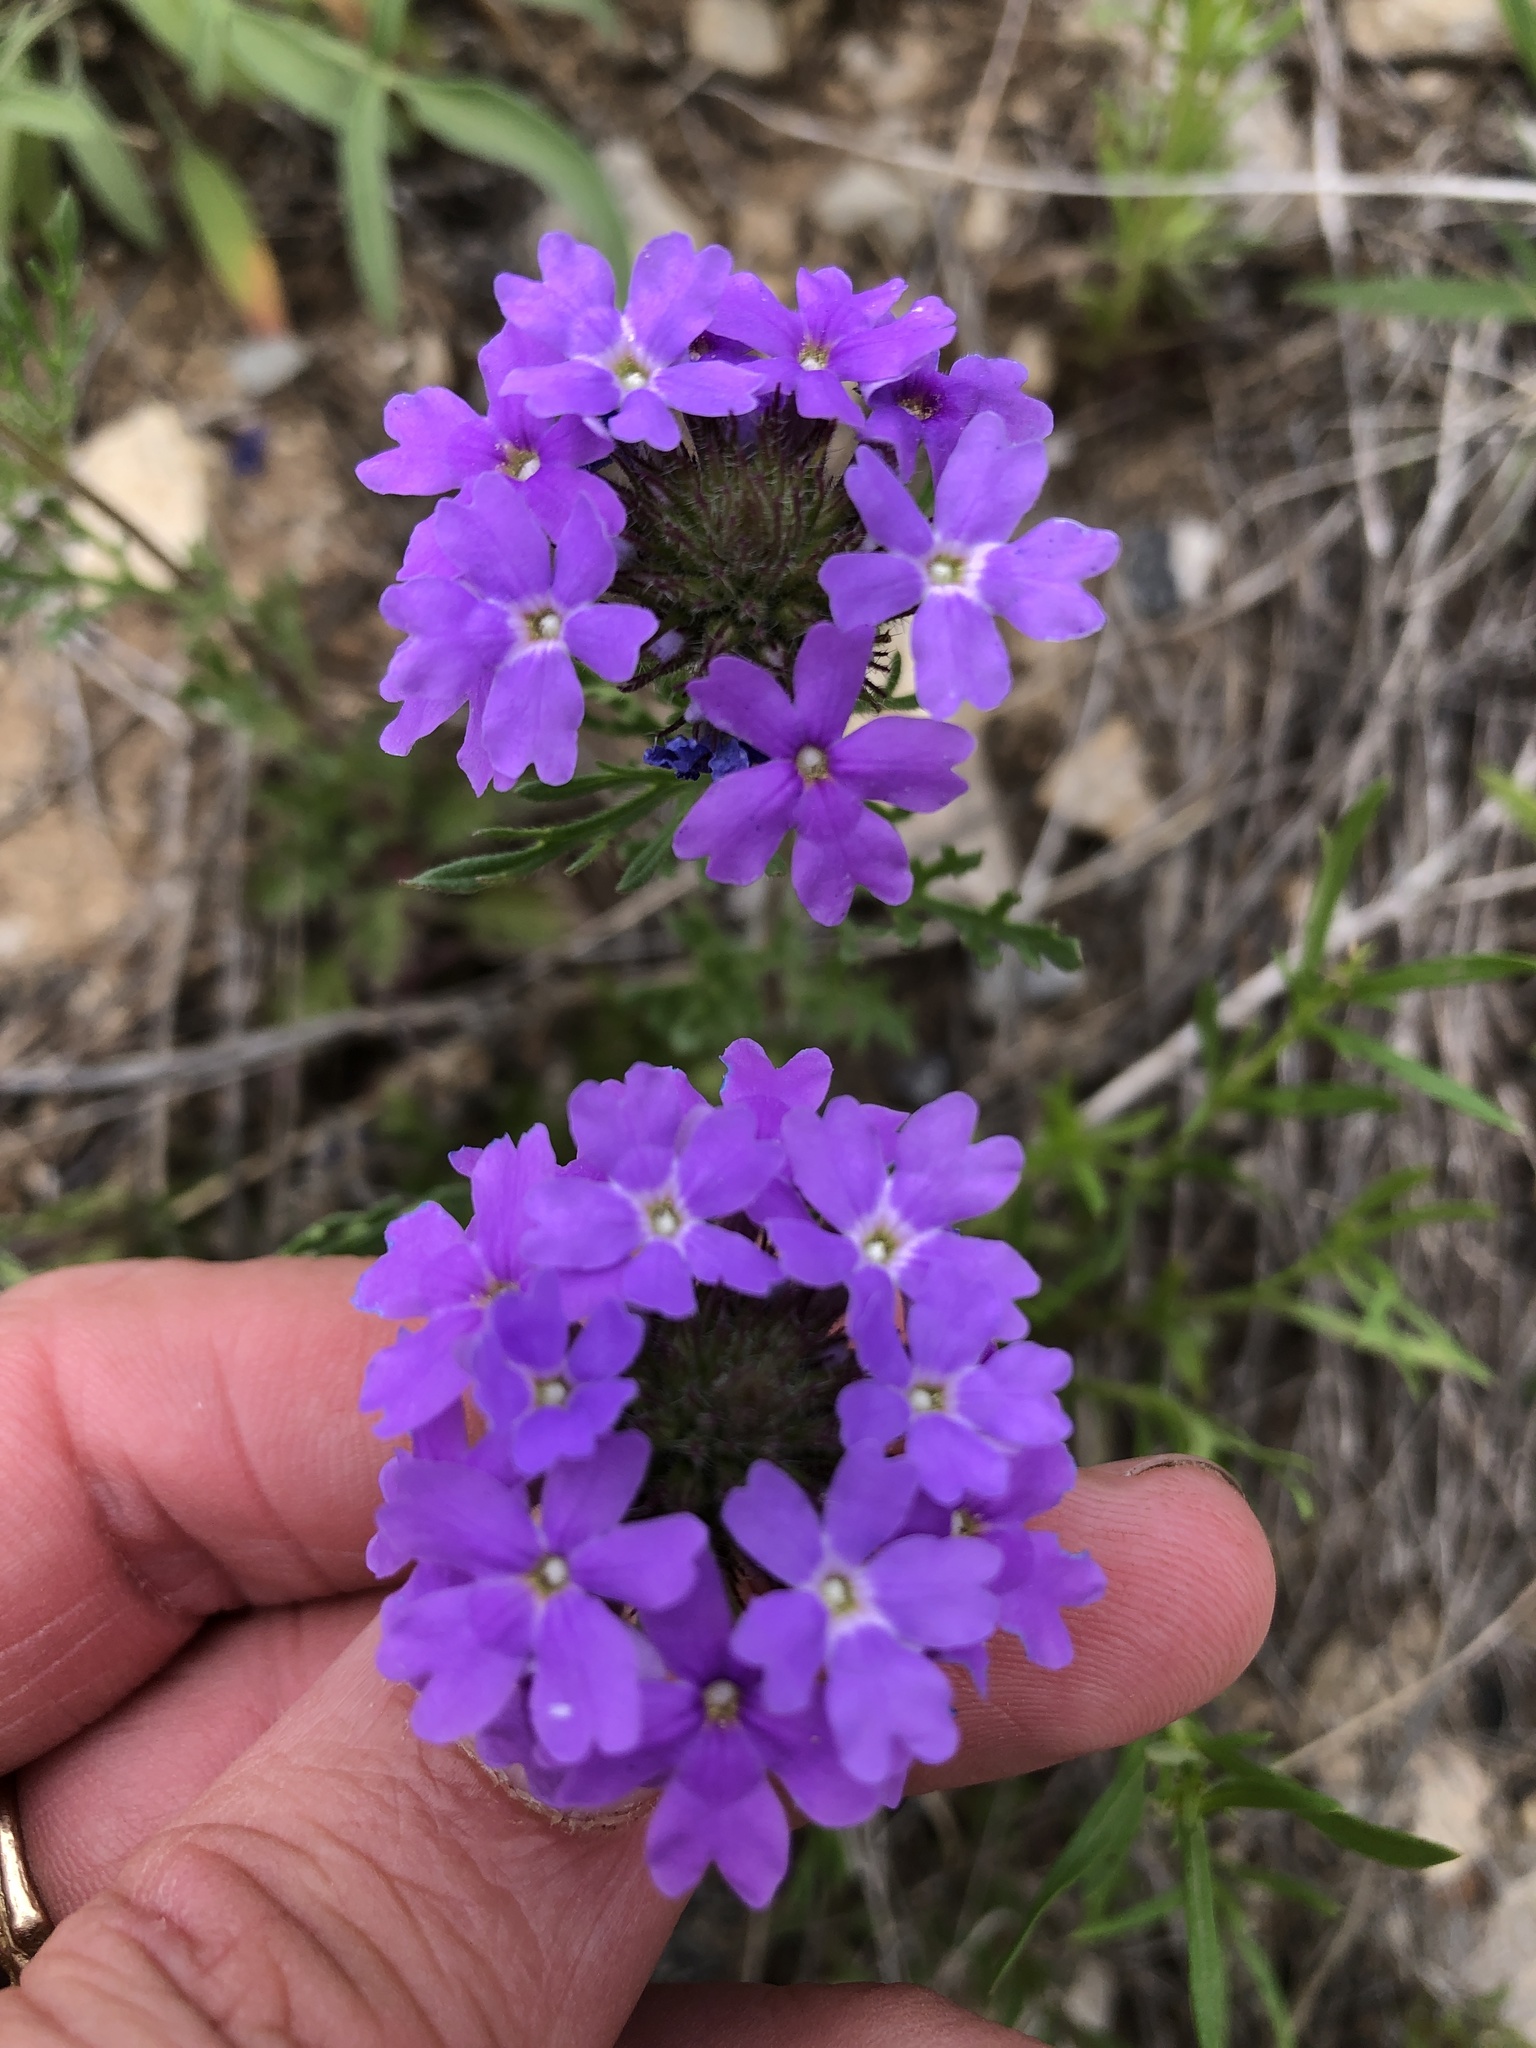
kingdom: Plantae
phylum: Tracheophyta
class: Magnoliopsida
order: Lamiales
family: Verbenaceae
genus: Verbena
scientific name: Verbena bipinnatifida
